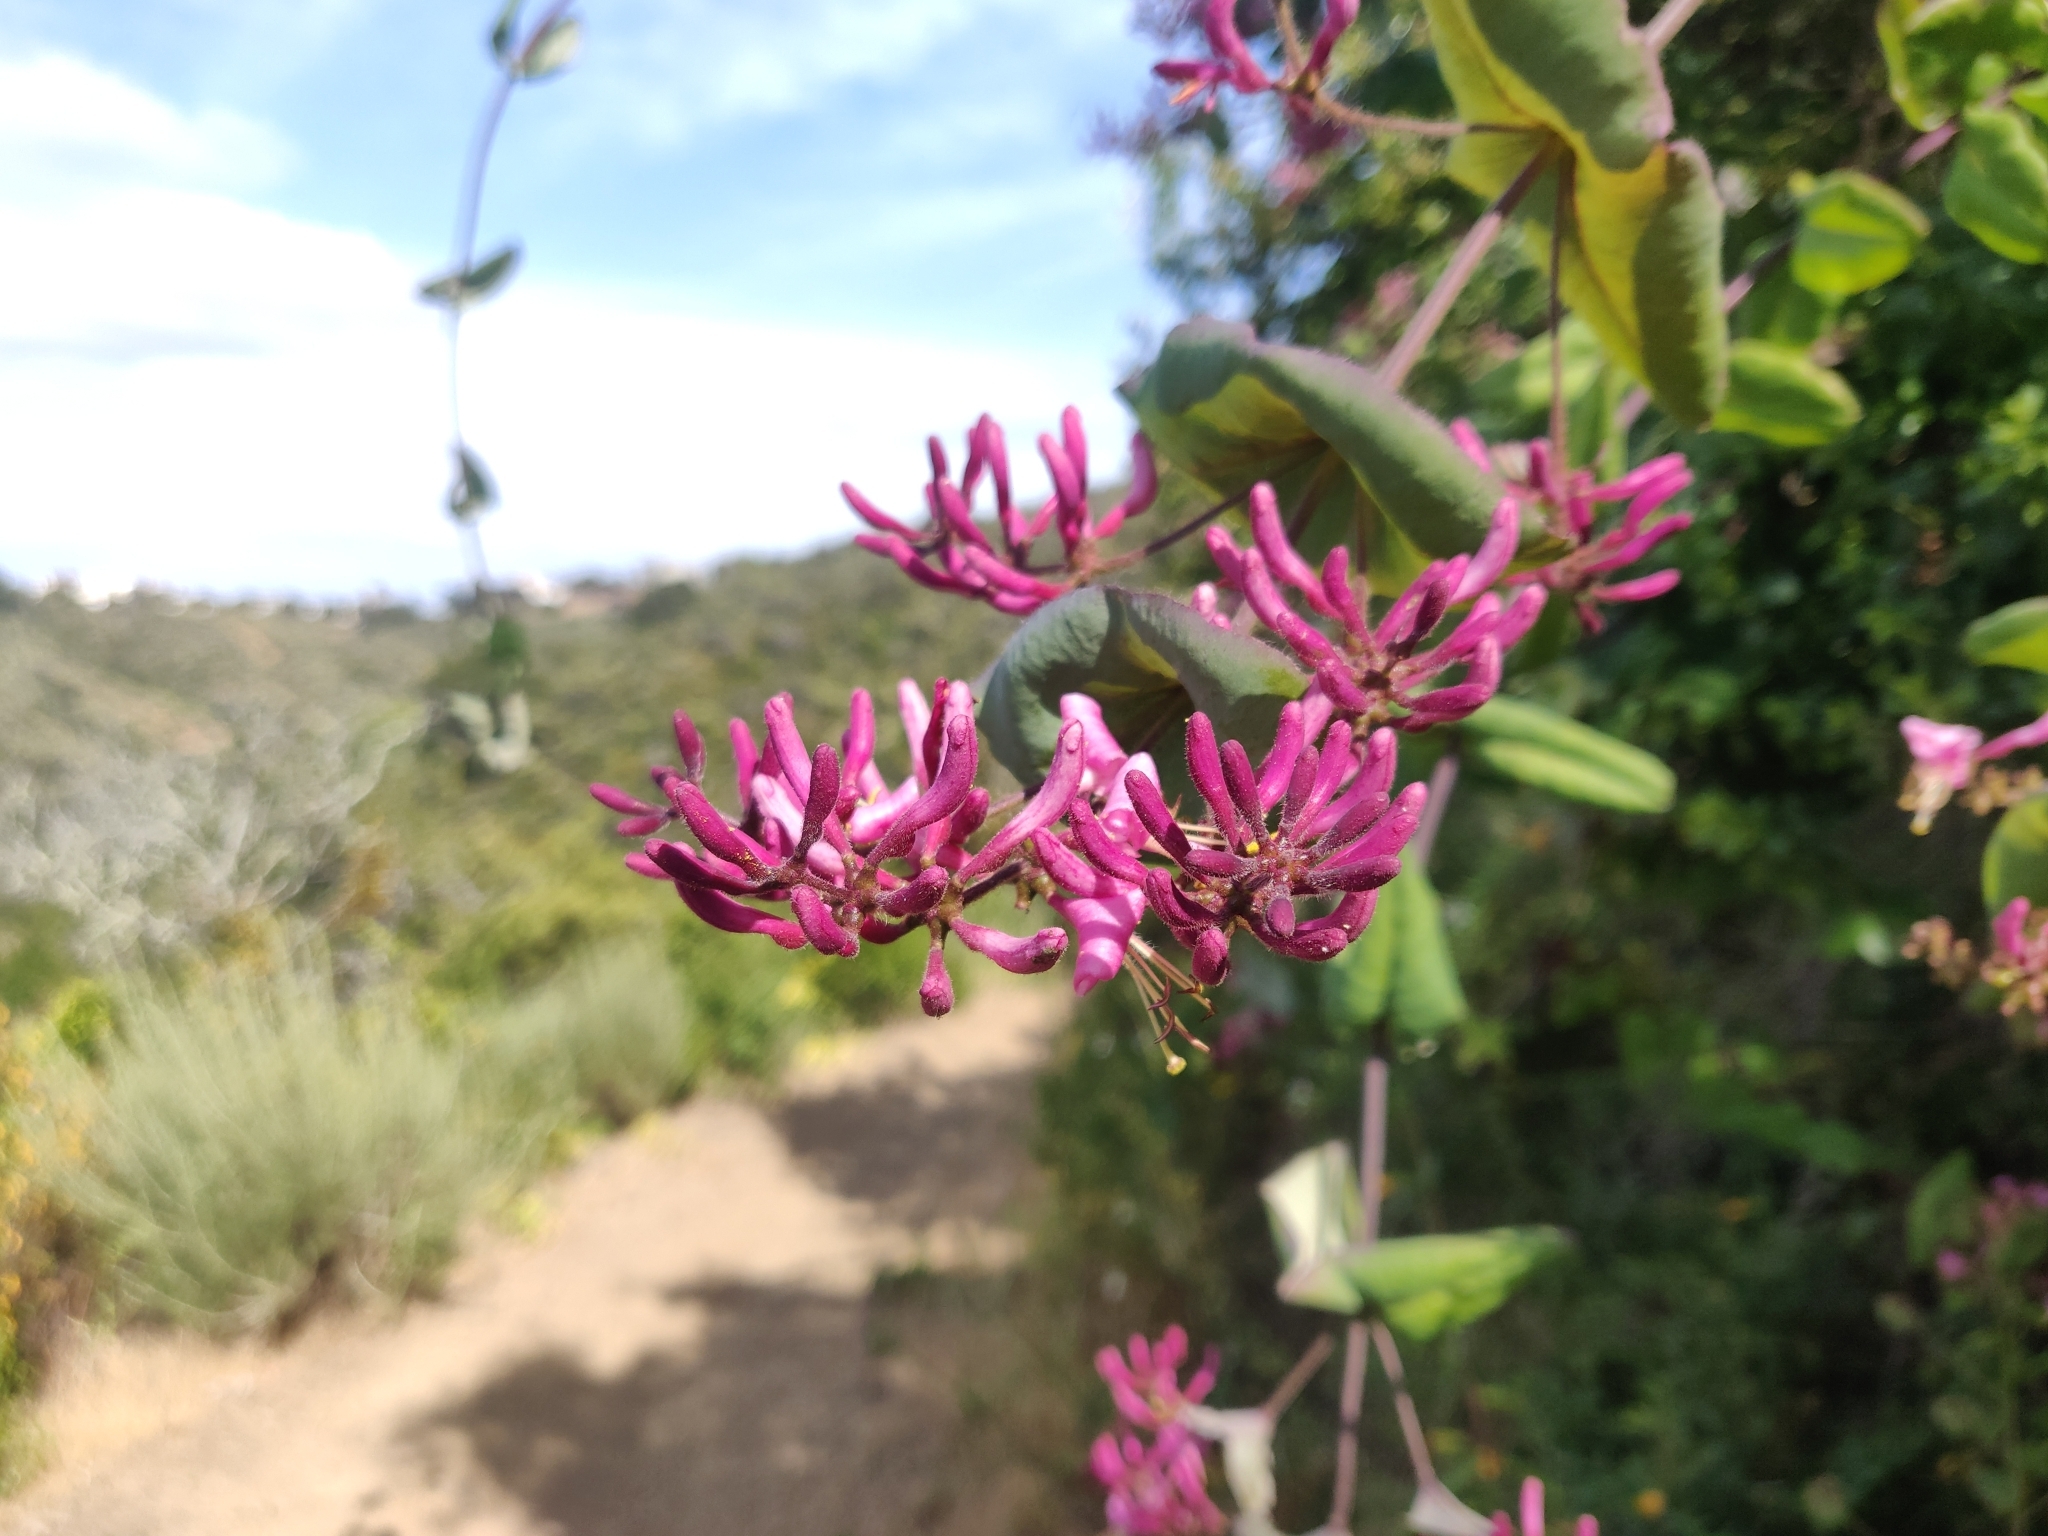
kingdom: Plantae
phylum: Tracheophyta
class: Magnoliopsida
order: Dipsacales
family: Caprifoliaceae
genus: Lonicera
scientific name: Lonicera hispidula
